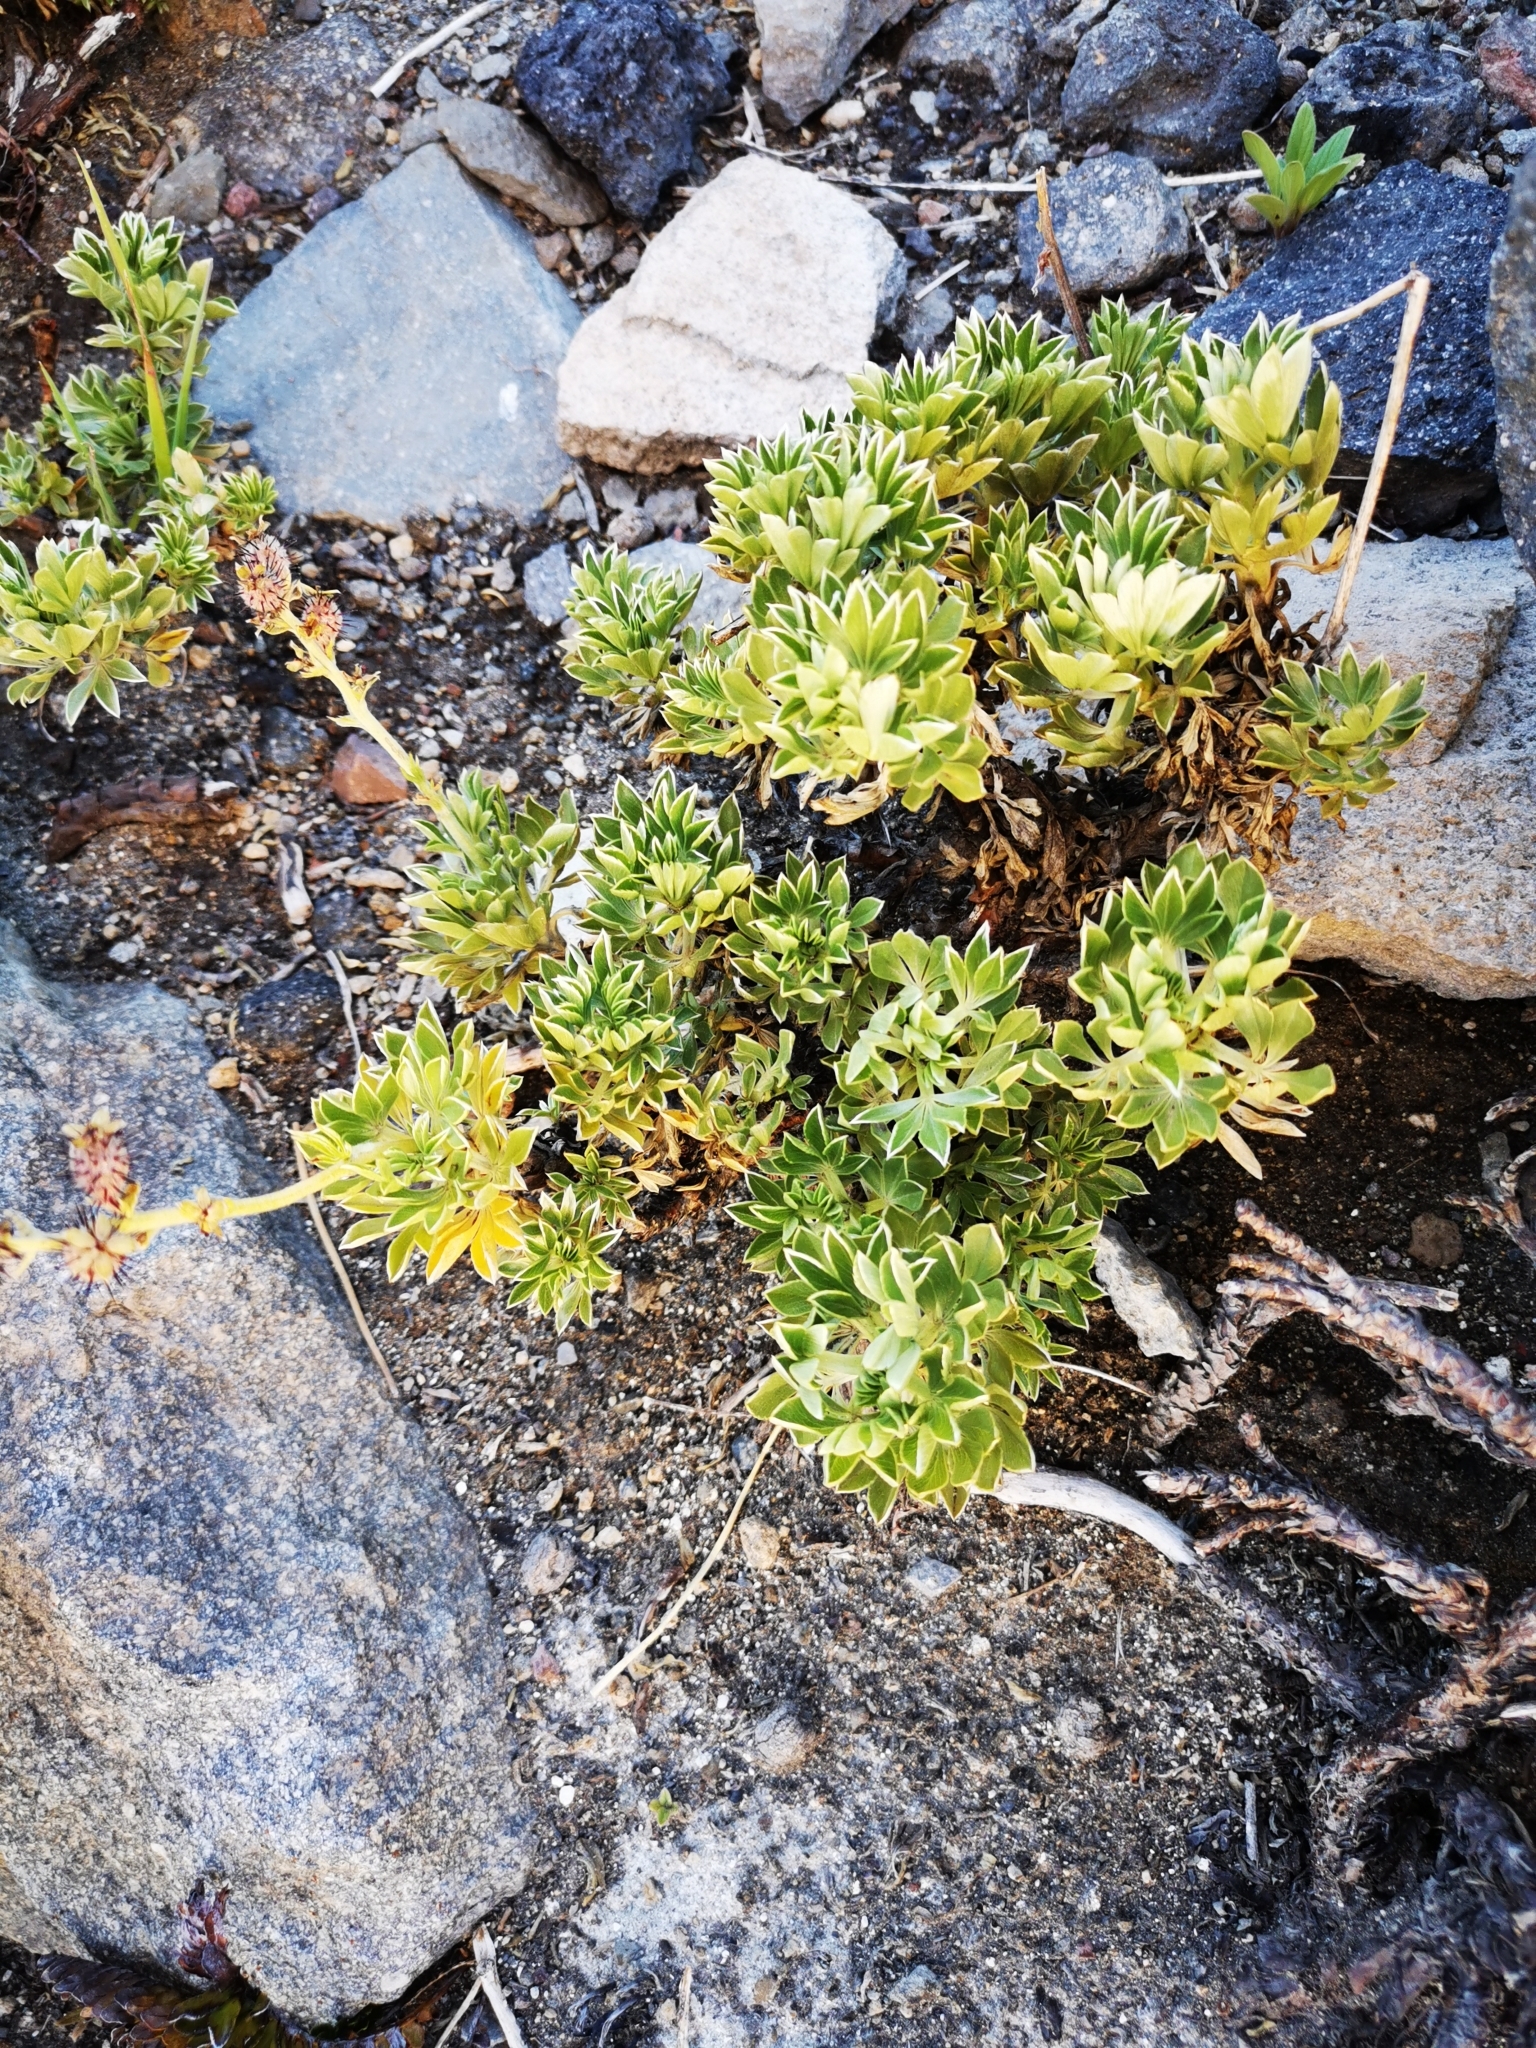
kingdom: Plantae
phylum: Tracheophyta
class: Magnoliopsida
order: Rosales
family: Rosaceae
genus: Acaena
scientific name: Acaena alpina
